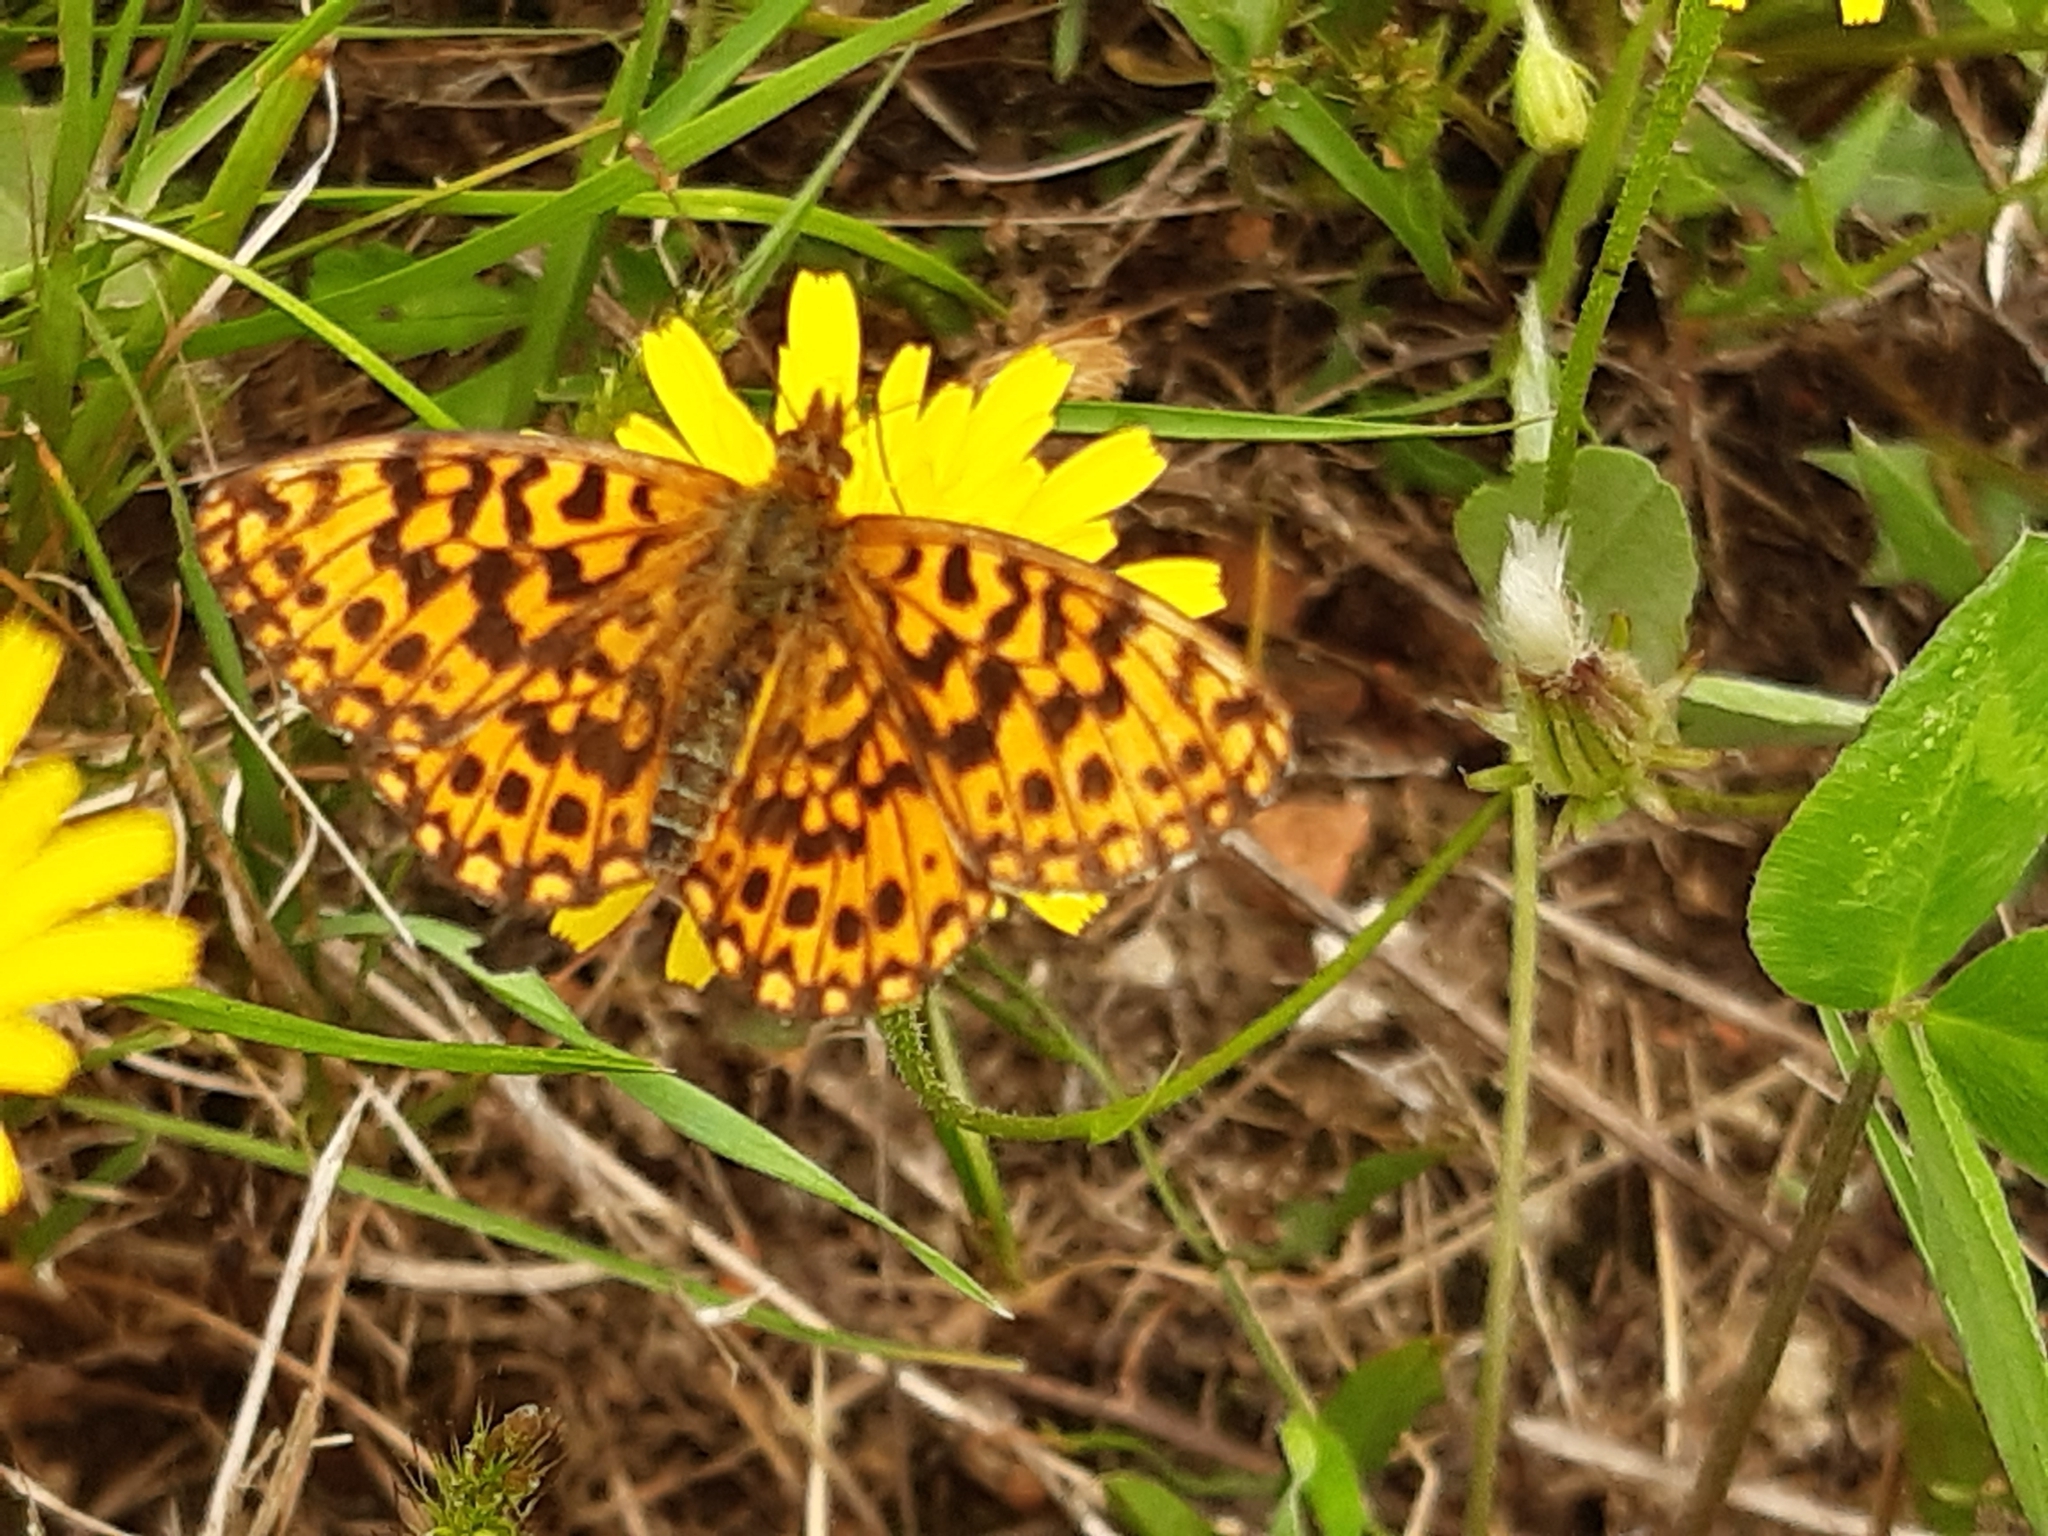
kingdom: Animalia
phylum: Arthropoda
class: Insecta
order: Lepidoptera
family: Nymphalidae
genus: Boloria
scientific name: Boloria dia
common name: Weaver's fritillary
